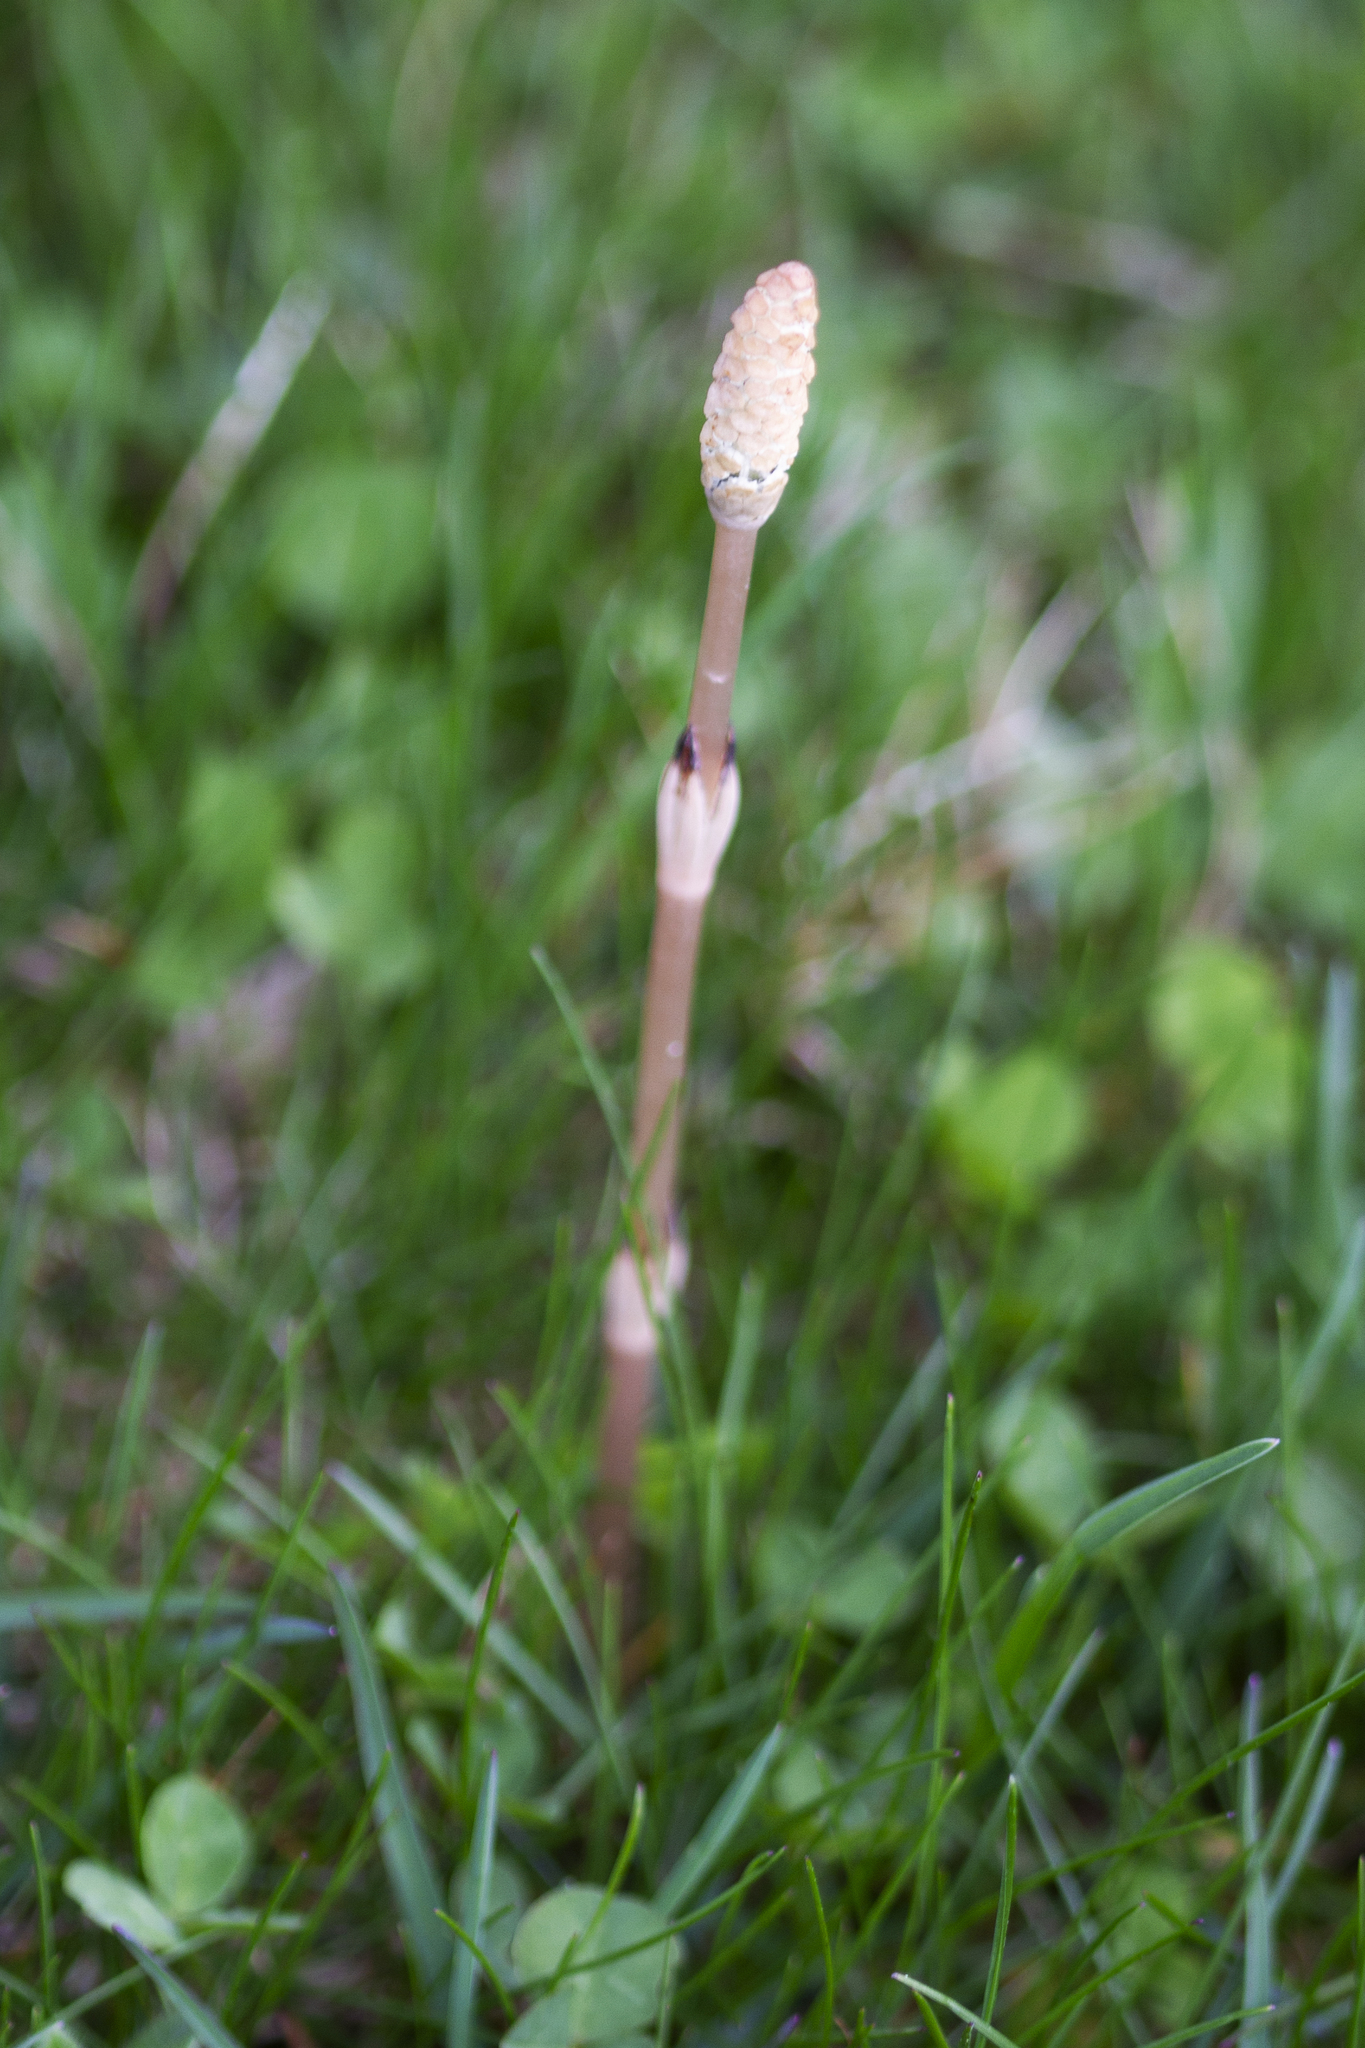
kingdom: Plantae
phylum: Tracheophyta
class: Polypodiopsida
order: Equisetales
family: Equisetaceae
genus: Equisetum
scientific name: Equisetum arvense
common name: Field horsetail
